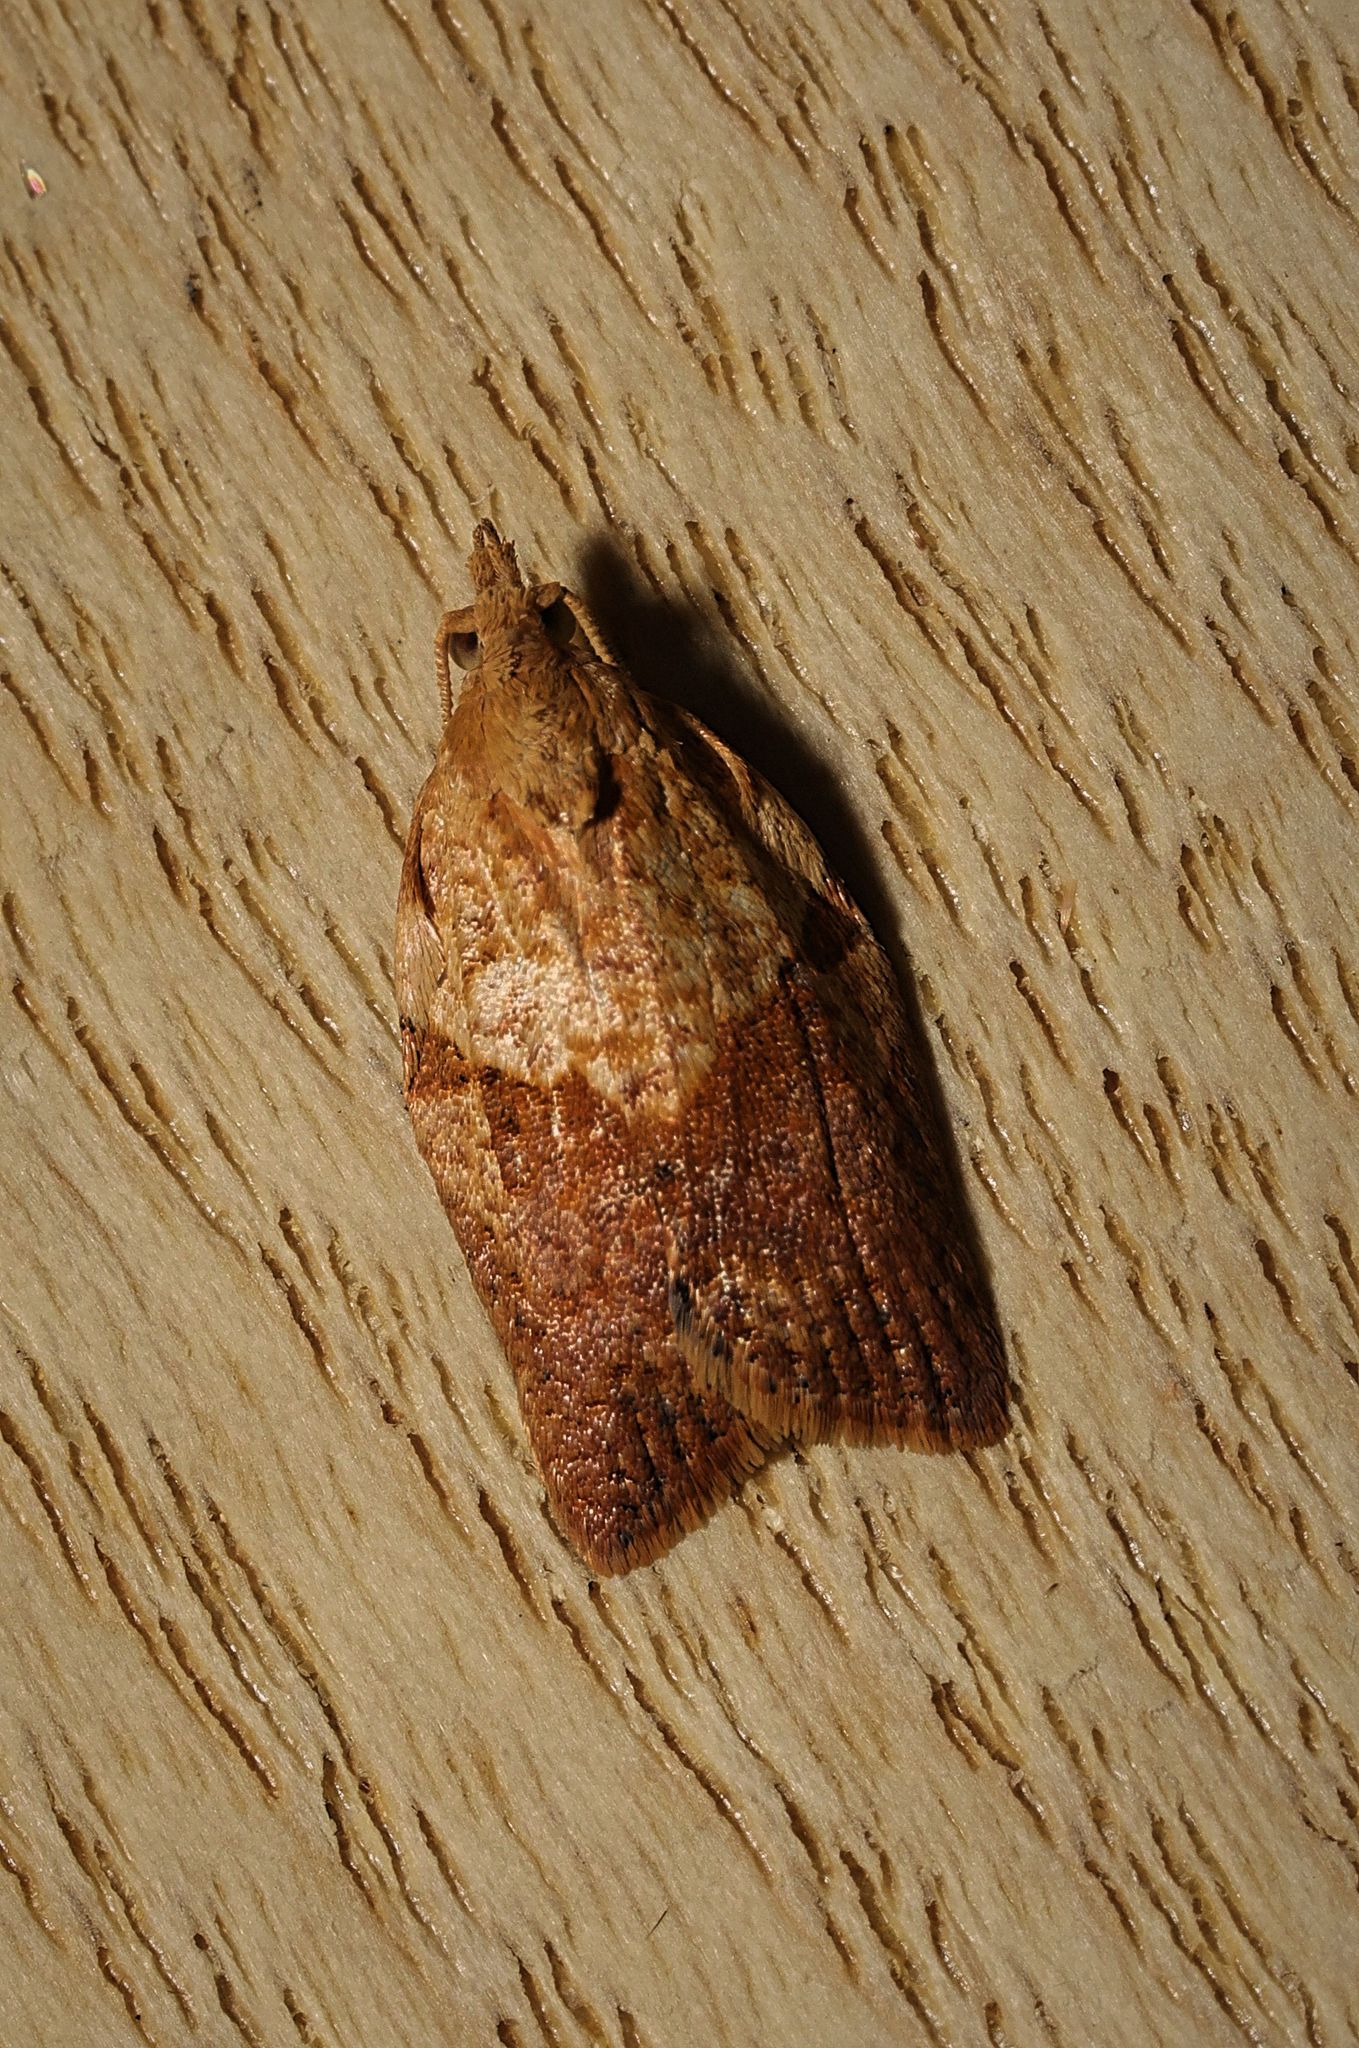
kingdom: Animalia
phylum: Arthropoda
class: Insecta
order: Lepidoptera
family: Tortricidae
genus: Epiphyas
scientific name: Epiphyas postvittana
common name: Light brown apple moth
